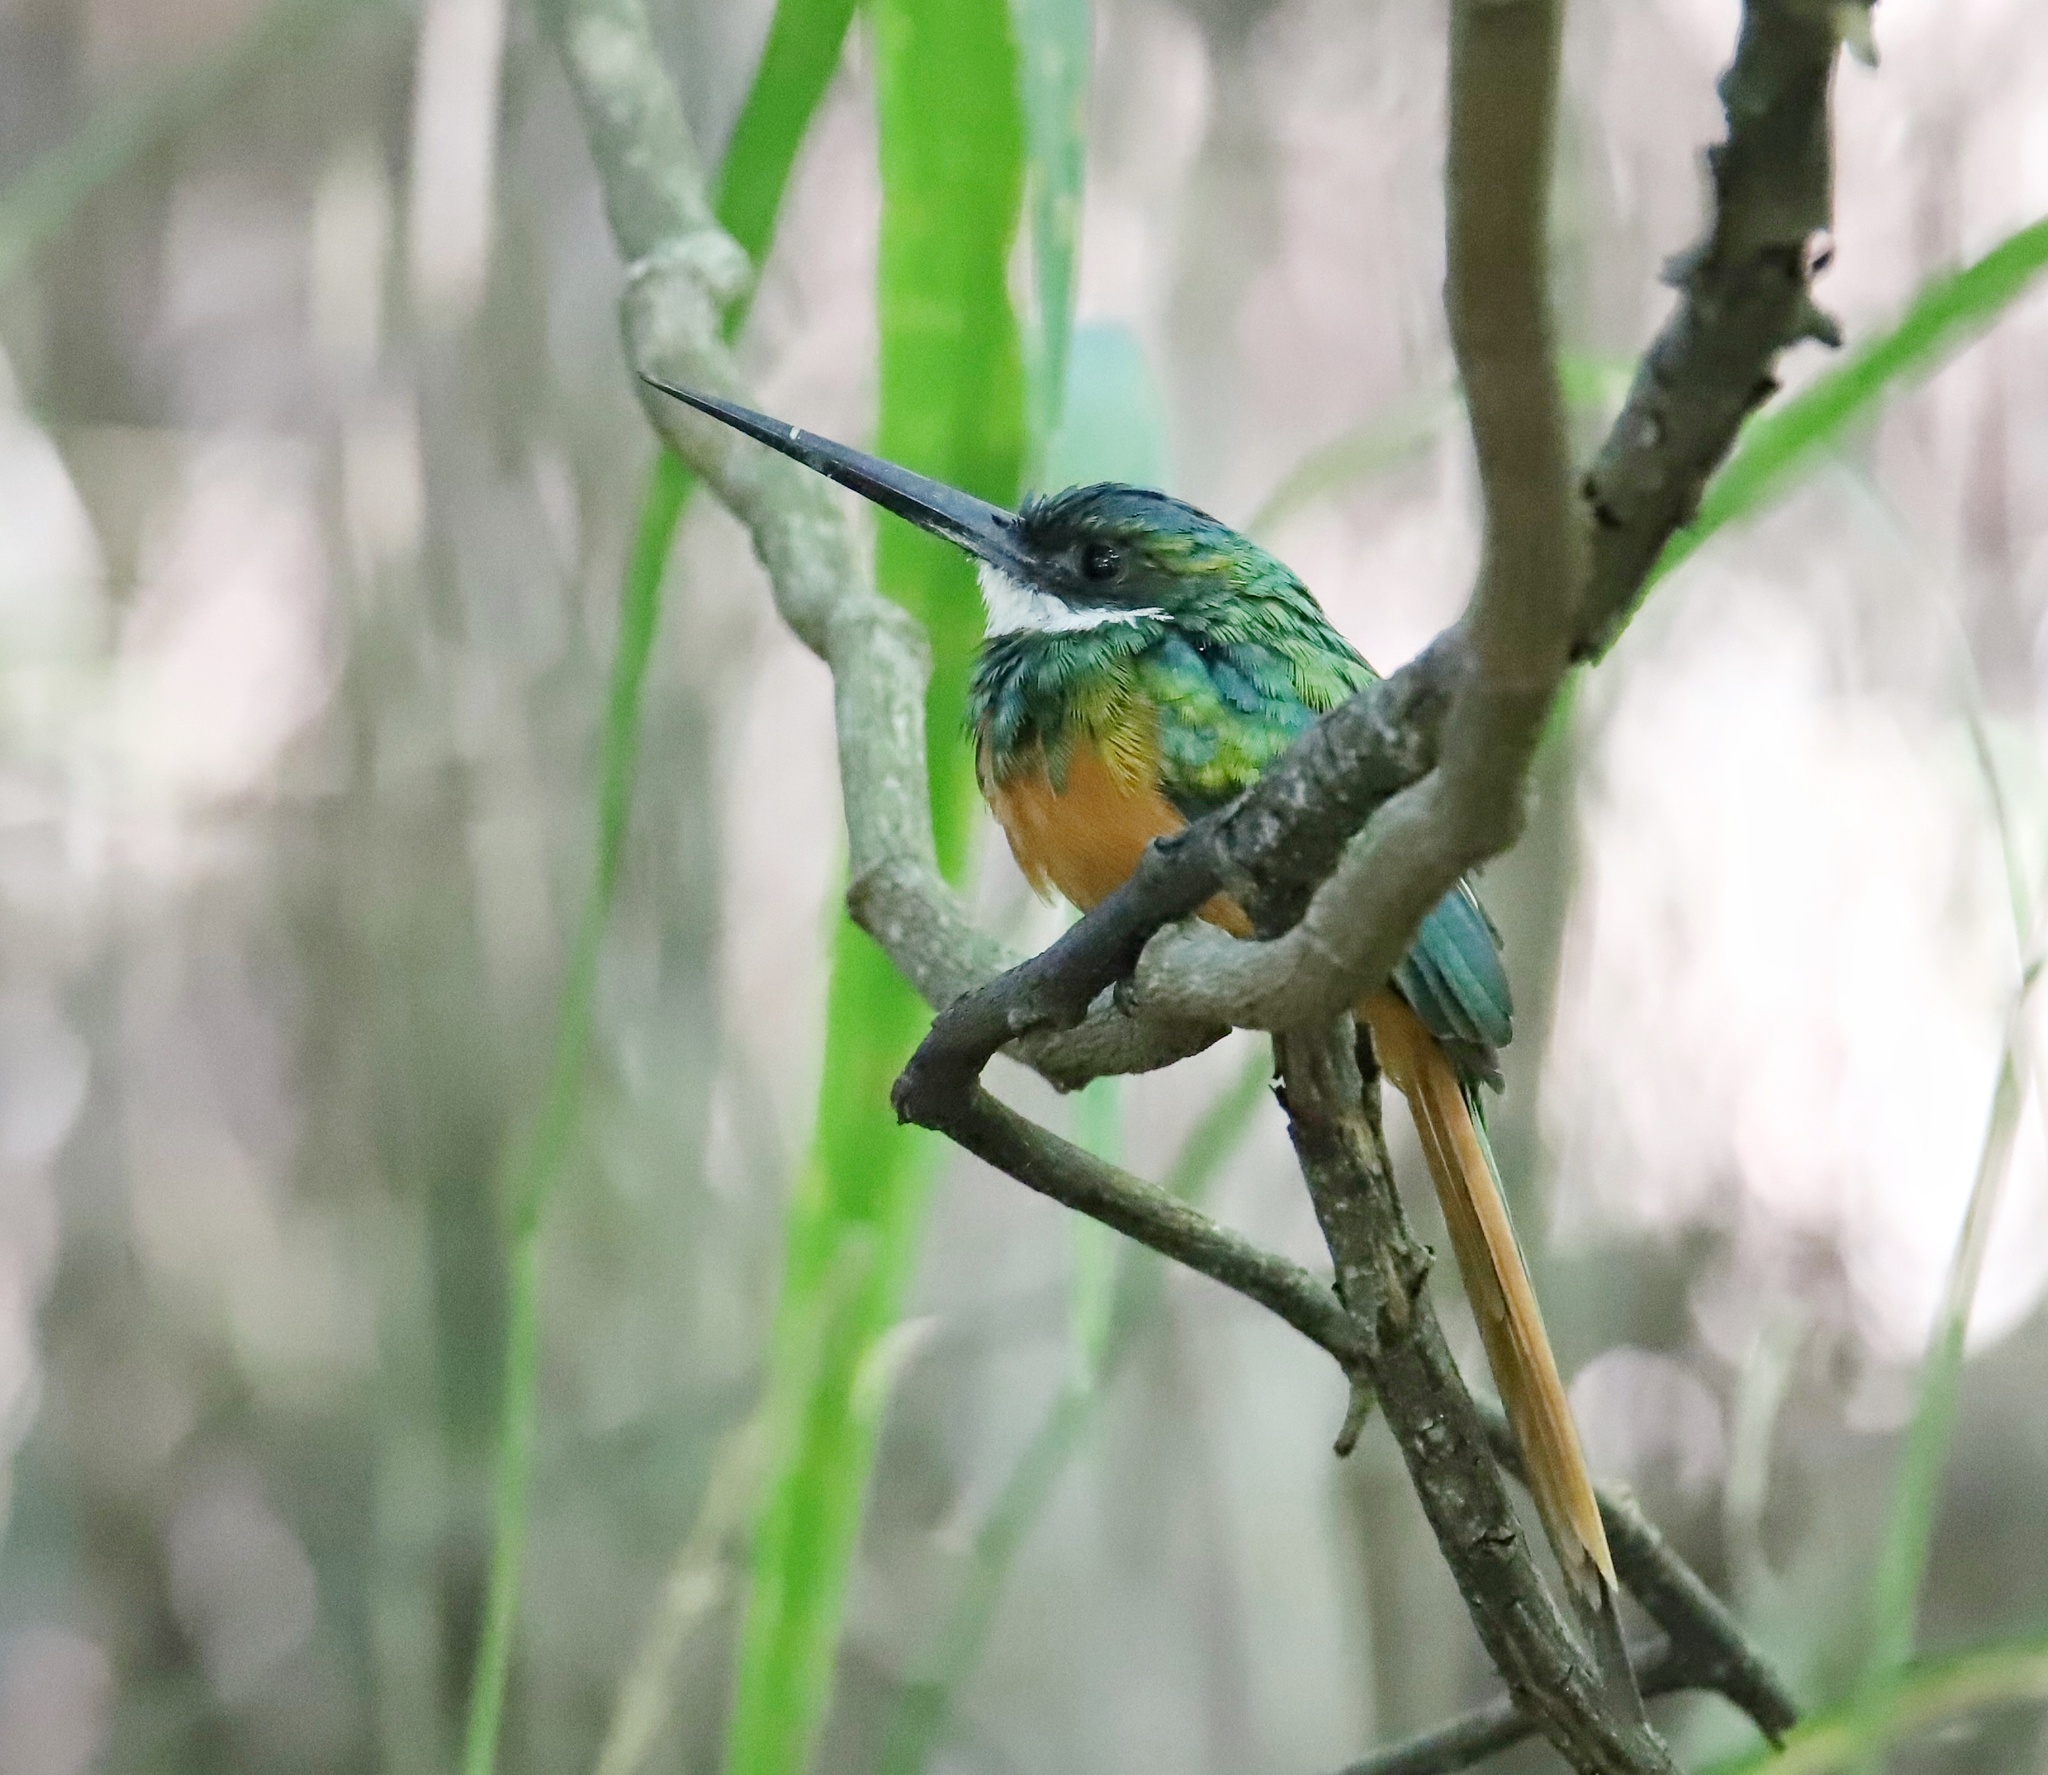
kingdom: Animalia
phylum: Chordata
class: Aves
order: Piciformes
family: Galbulidae
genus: Galbula
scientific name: Galbula ruficauda
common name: Rufous-tailed jacamar
